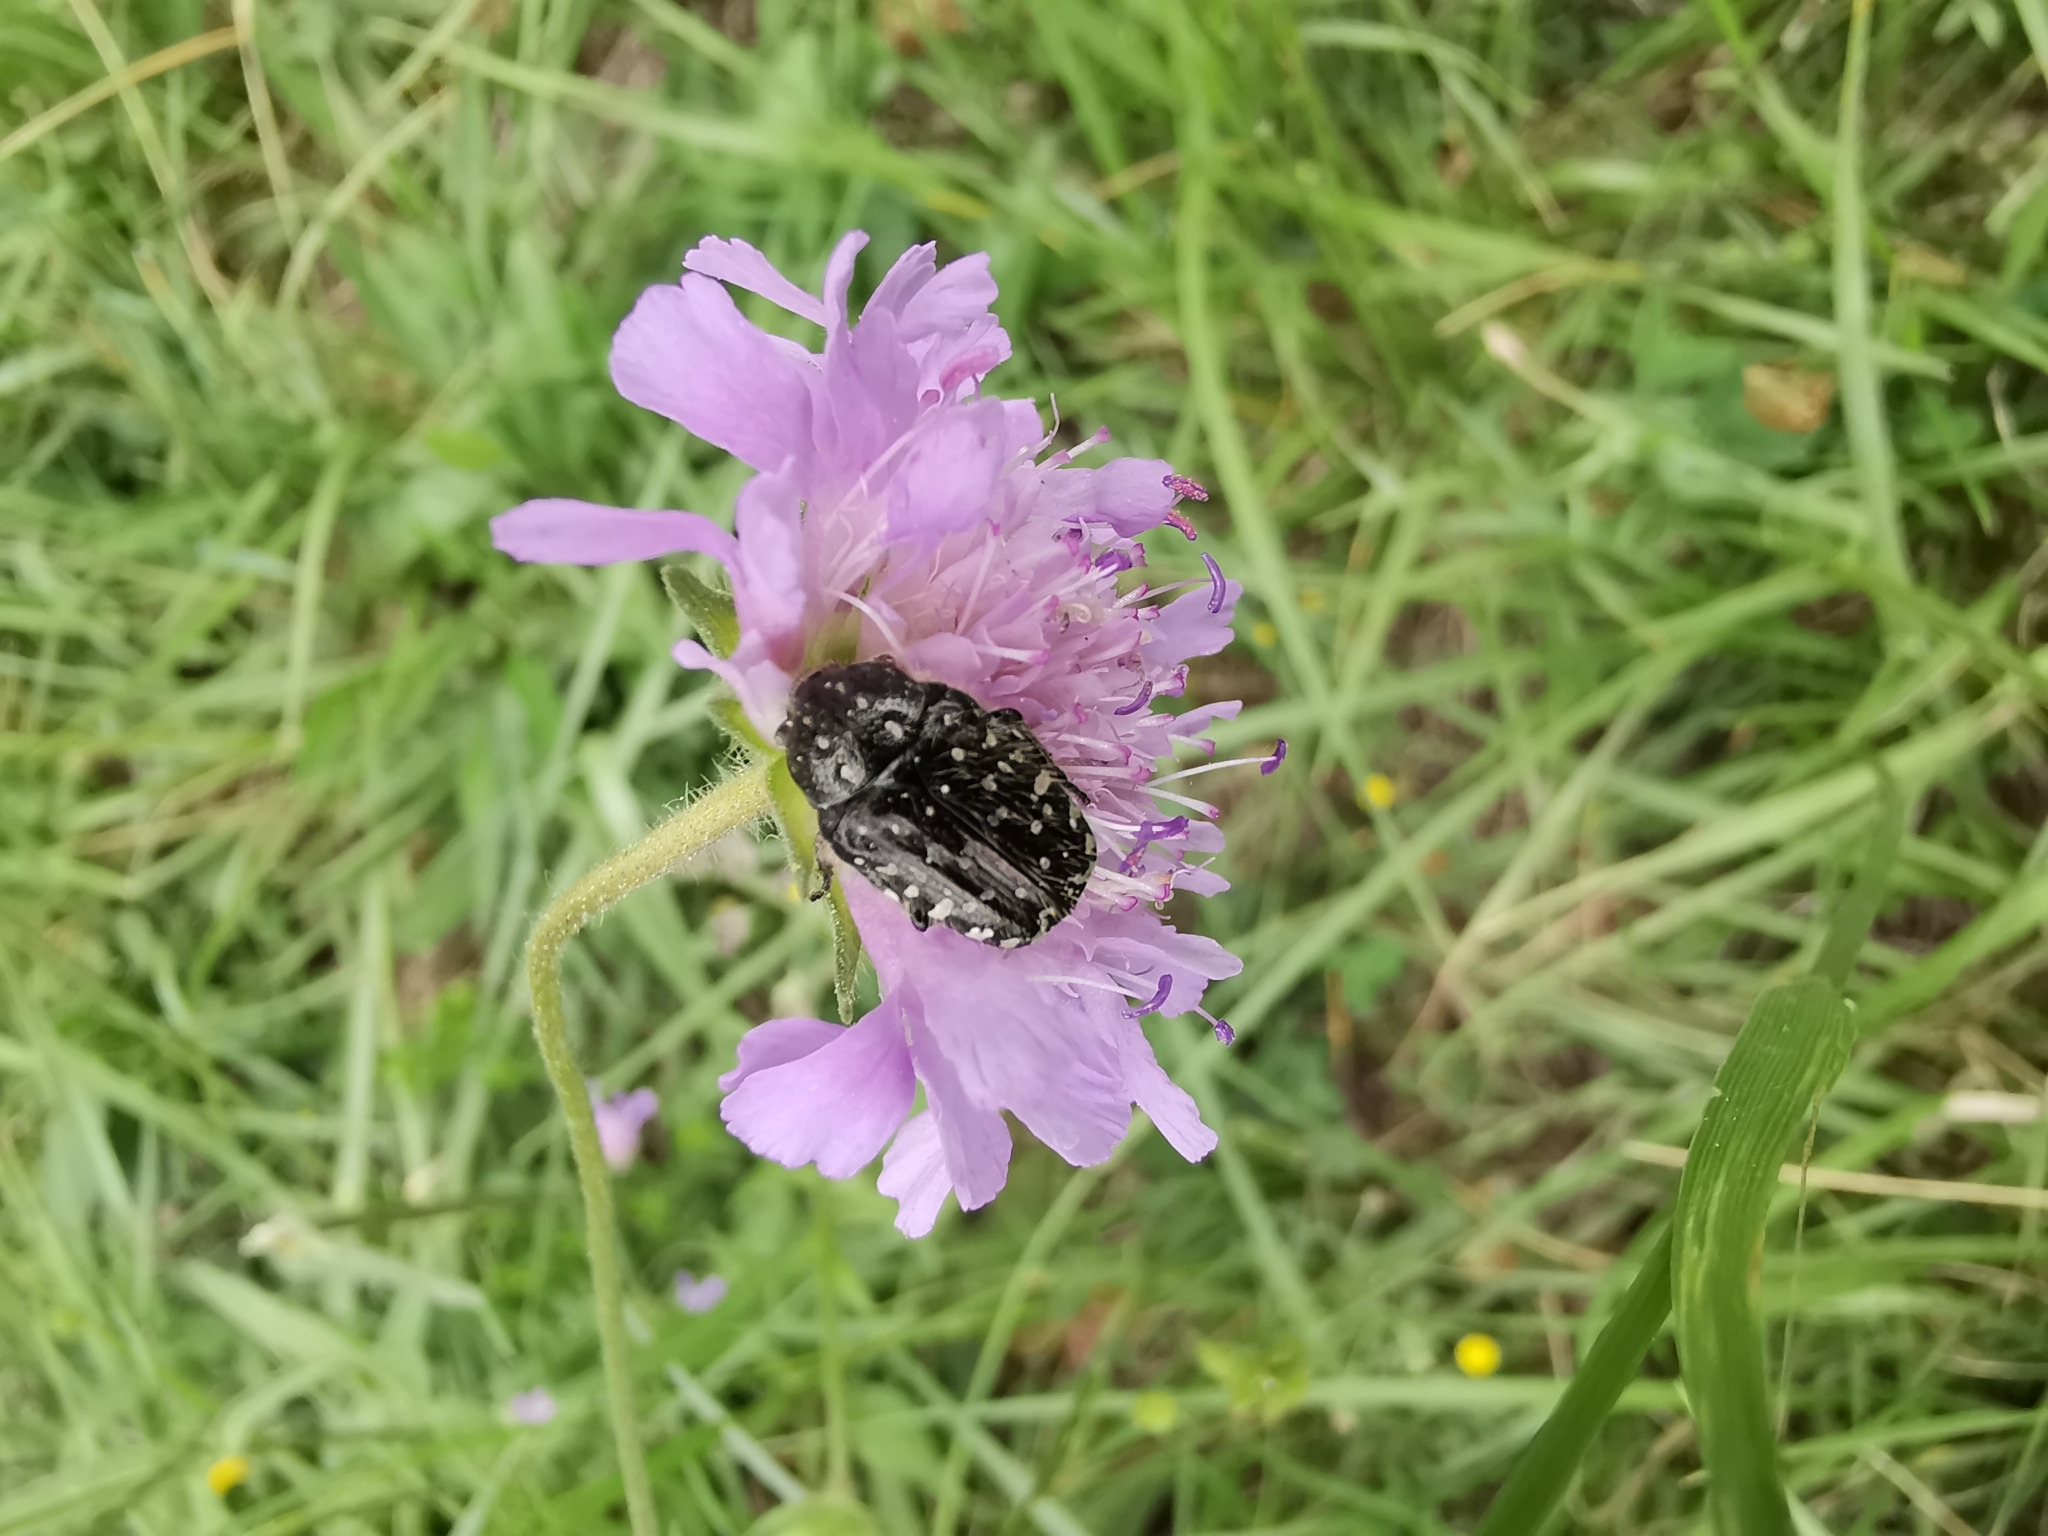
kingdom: Animalia
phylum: Arthropoda
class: Insecta
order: Coleoptera
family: Scarabaeidae
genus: Oxythyrea
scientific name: Oxythyrea funesta
